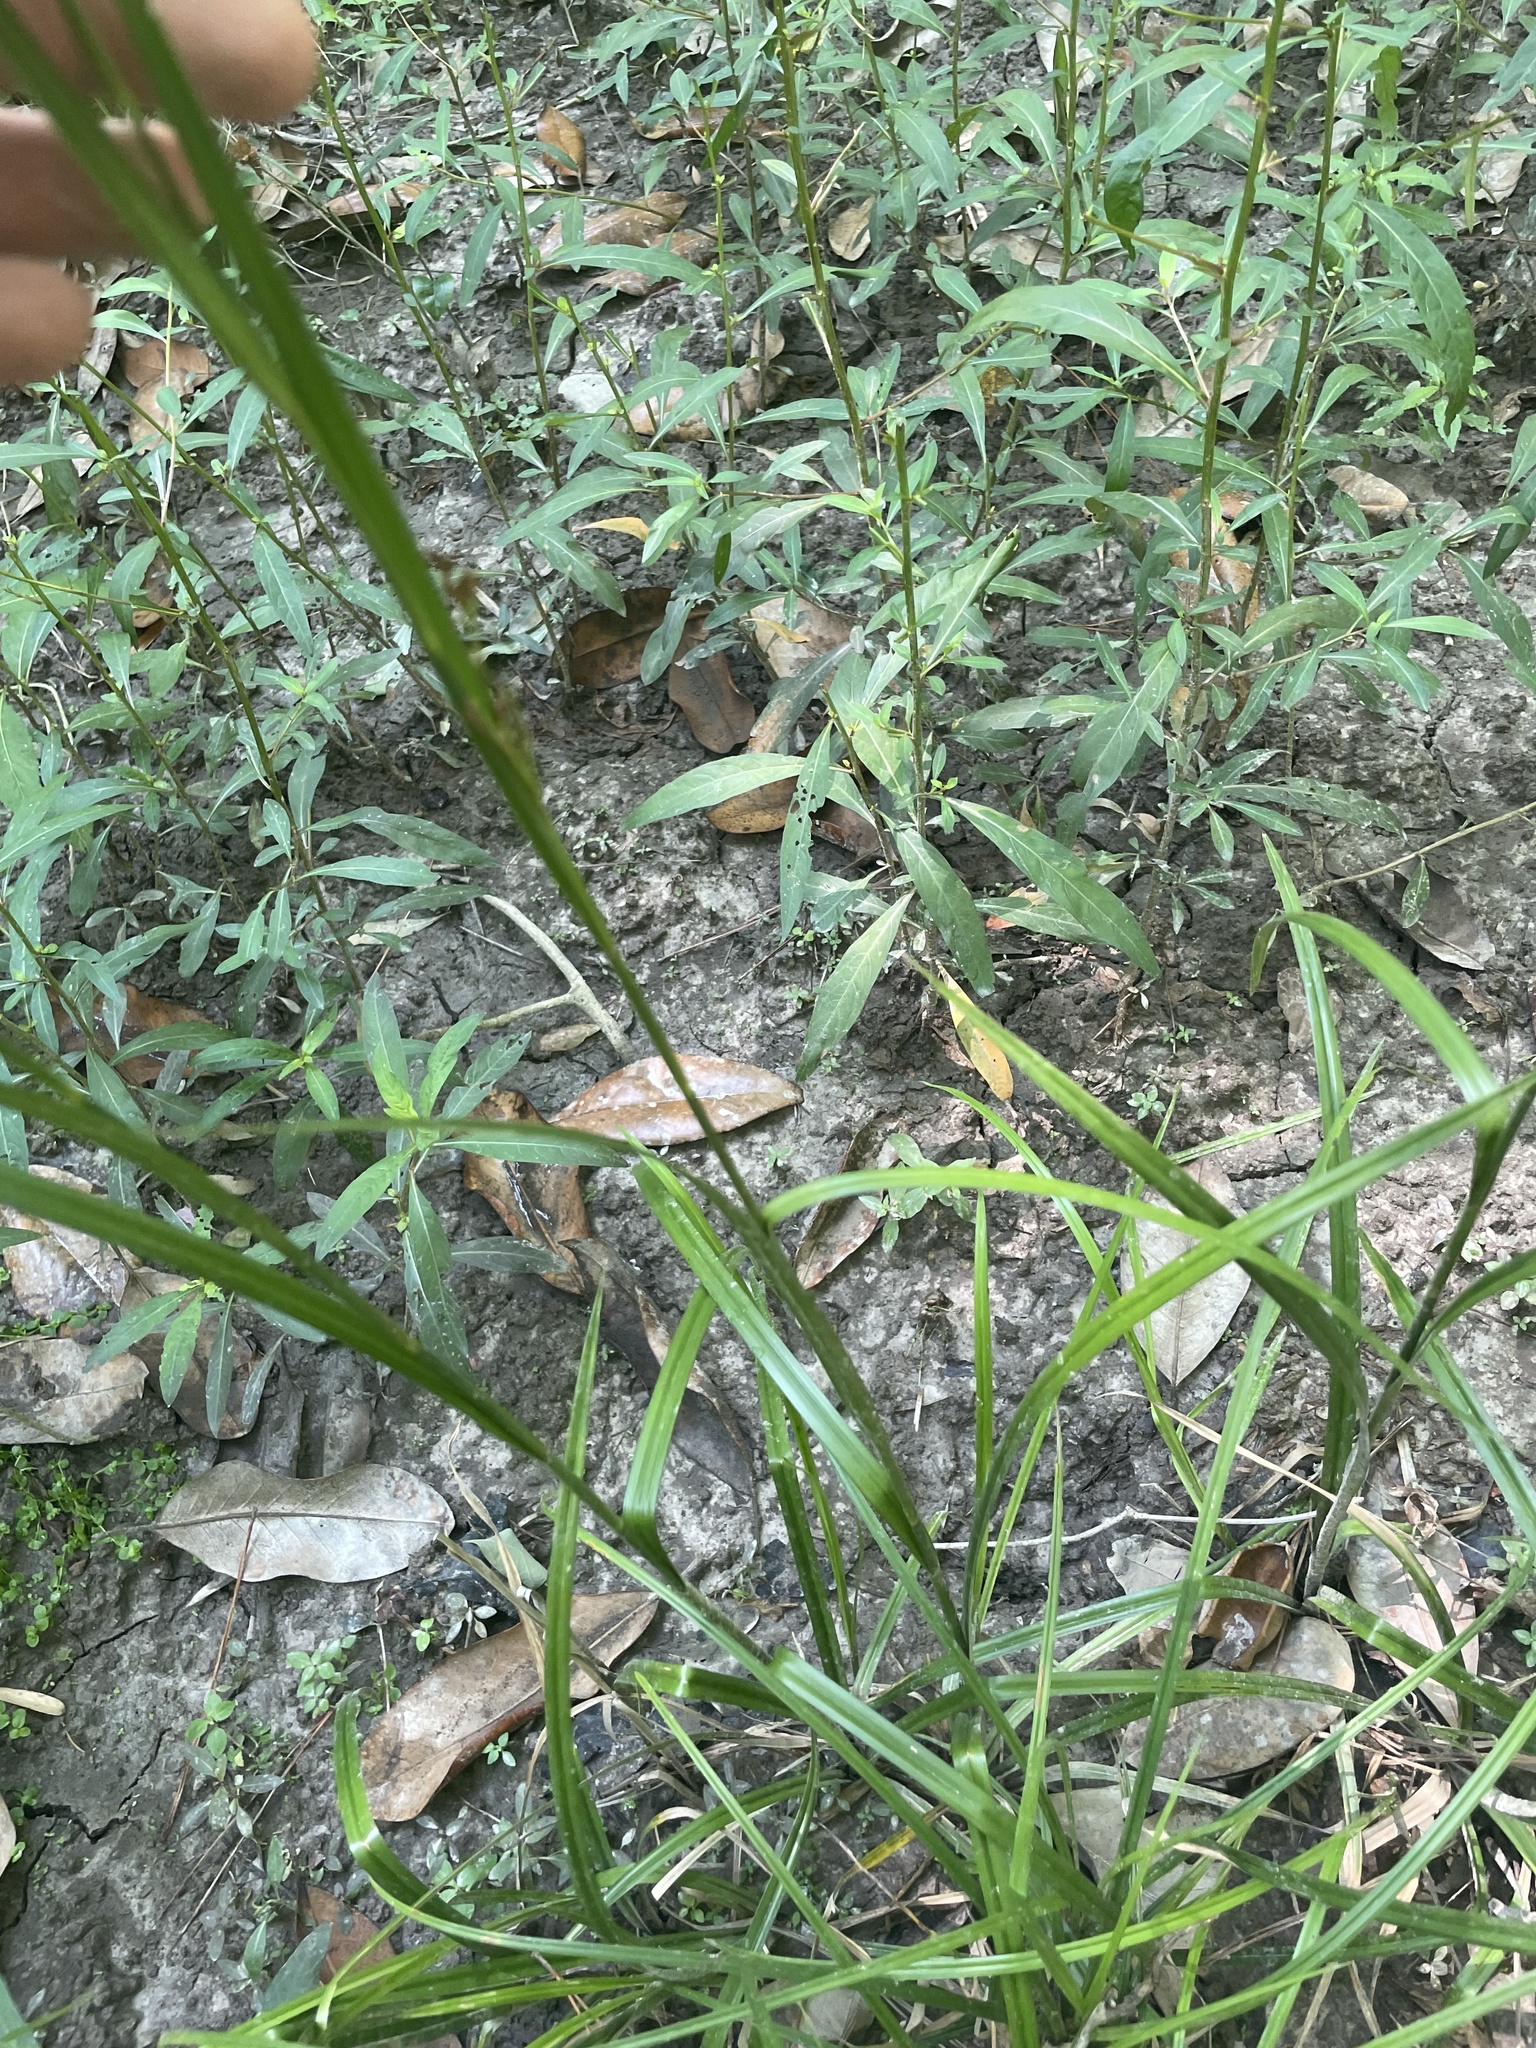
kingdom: Plantae
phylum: Tracheophyta
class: Liliopsida
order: Poales
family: Cyperaceae
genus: Rhynchospora
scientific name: Rhynchospora mixta
